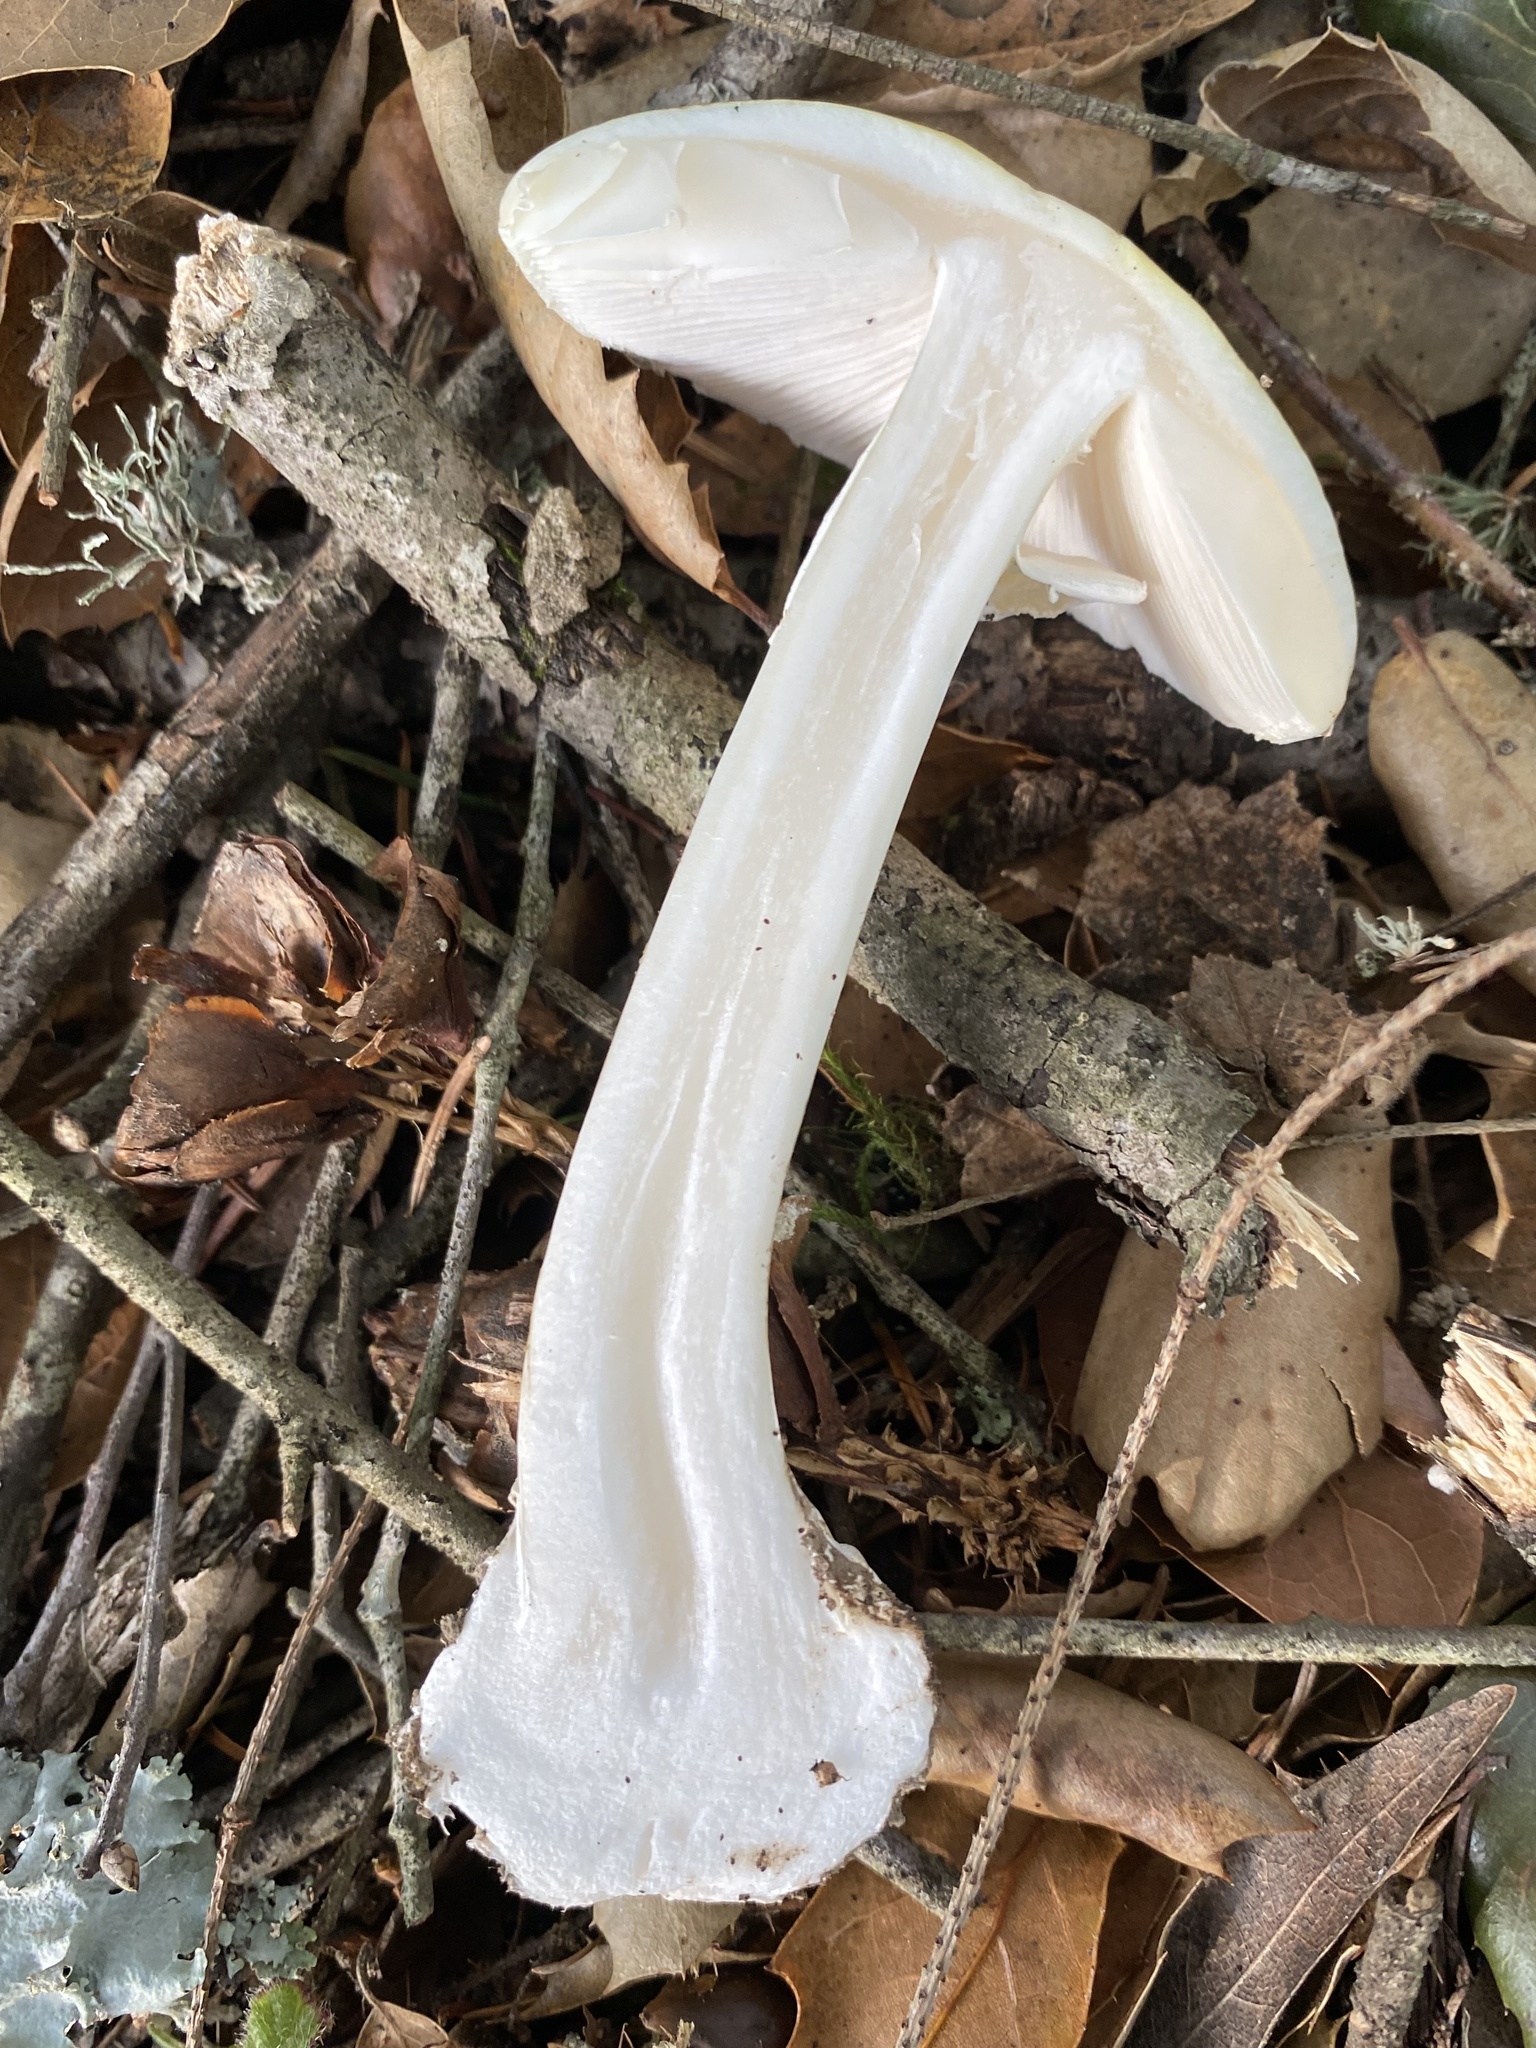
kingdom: Fungi
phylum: Basidiomycota
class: Agaricomycetes
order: Agaricales
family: Amanitaceae
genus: Amanita
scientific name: Amanita phalloides
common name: Death cap
